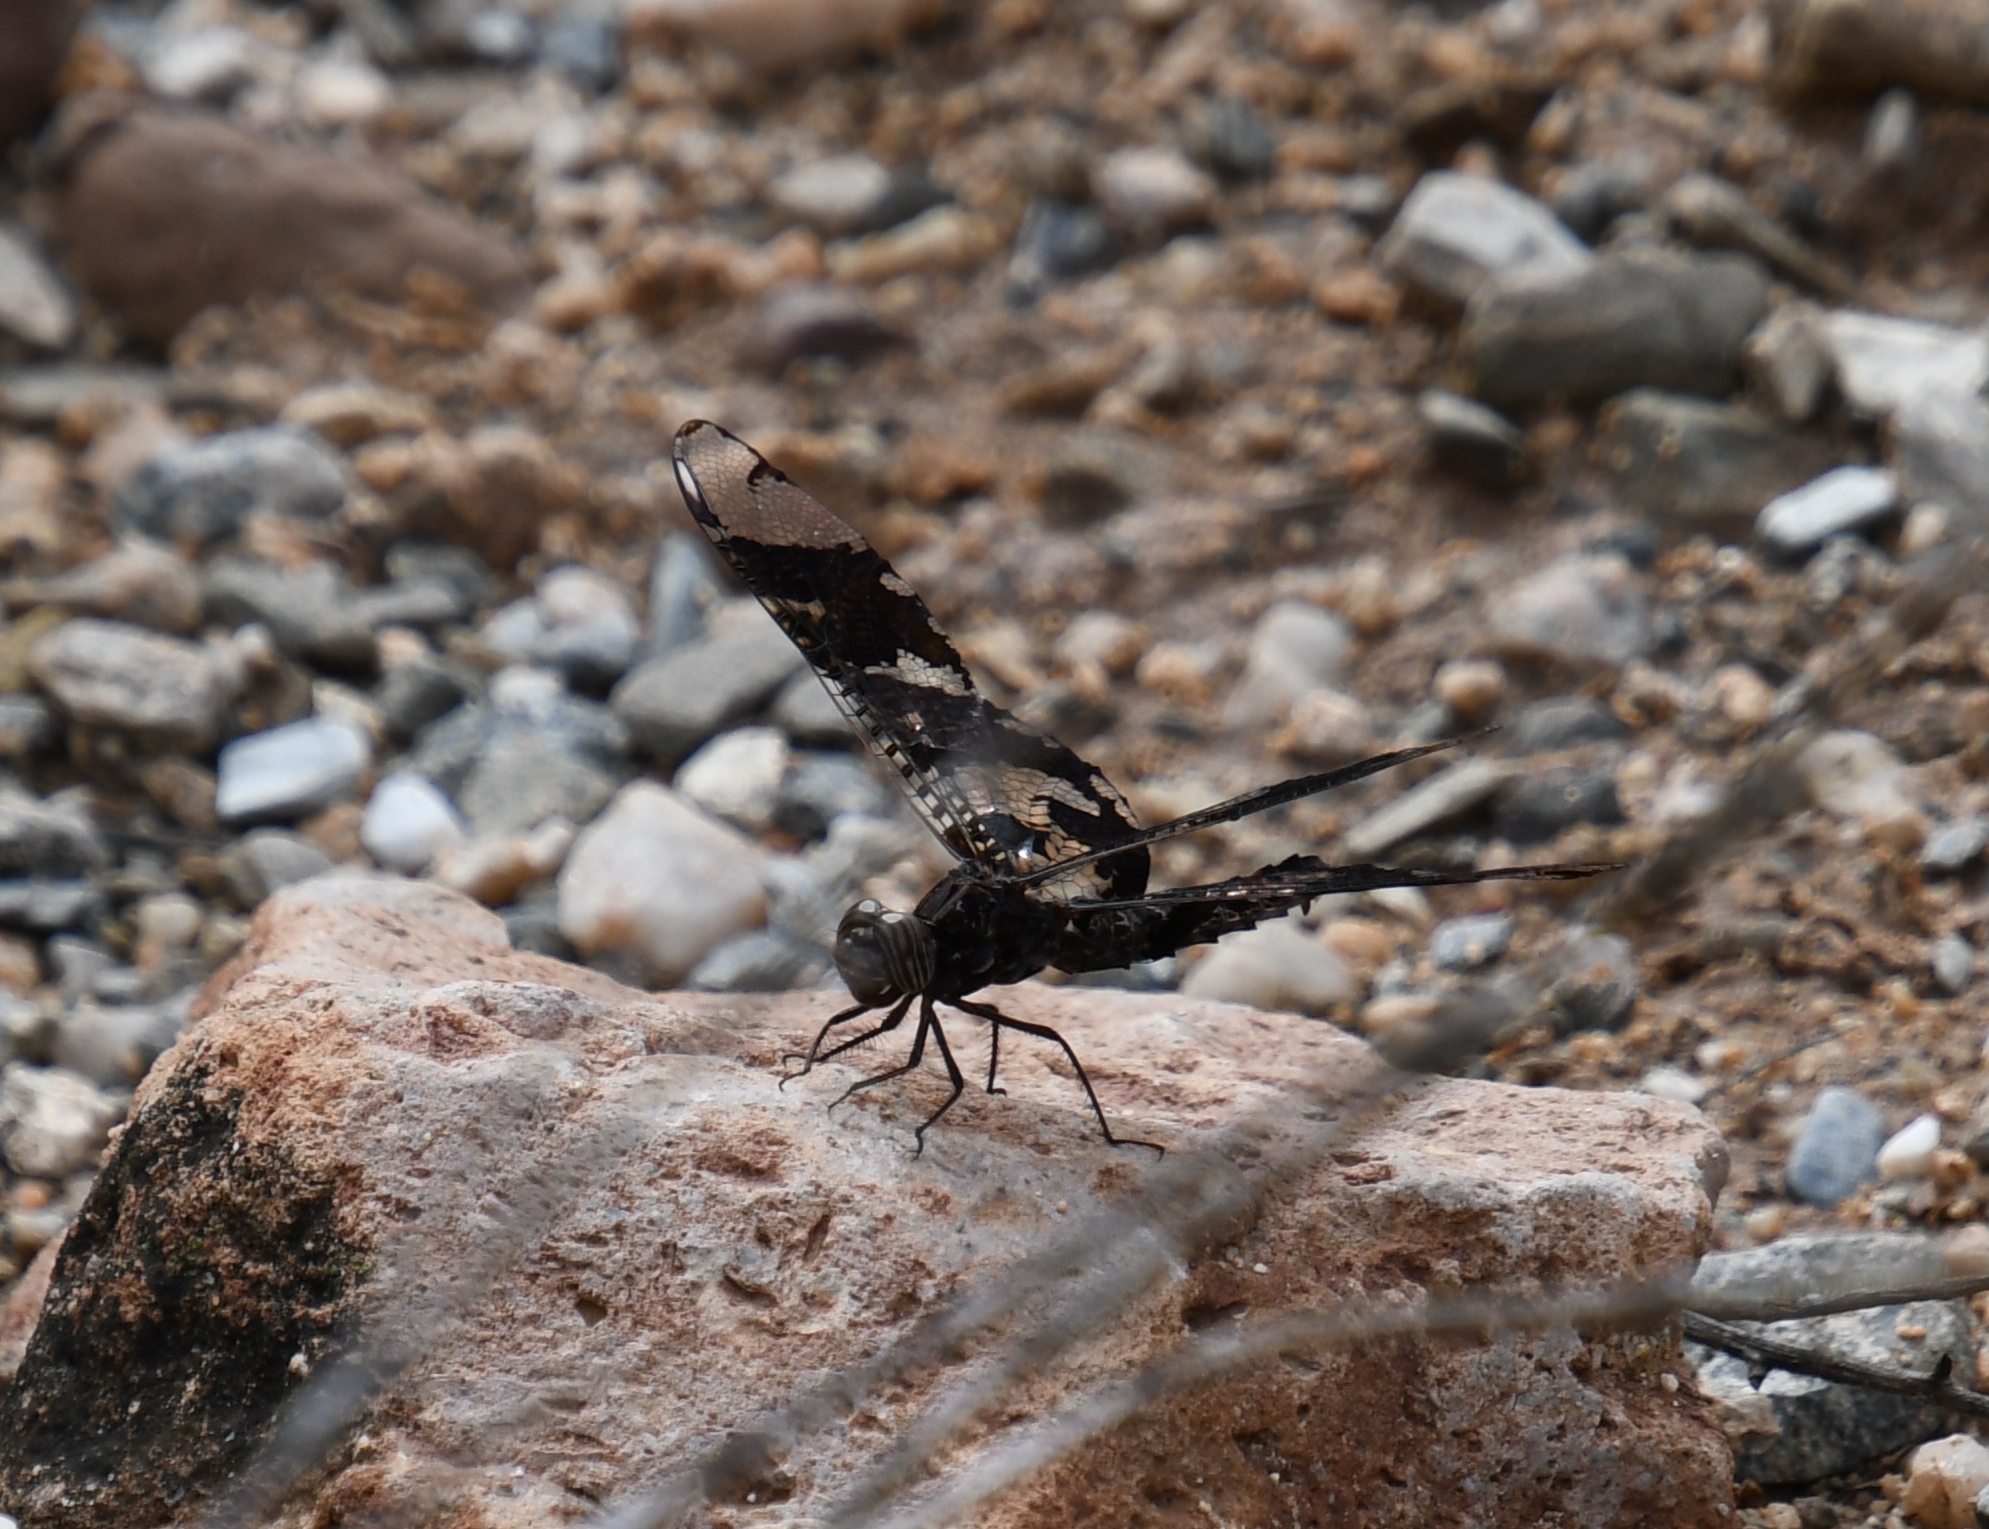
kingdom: Animalia
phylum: Arthropoda
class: Insecta
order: Odonata
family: Libellulidae
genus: Pseudoleon
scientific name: Pseudoleon superbus
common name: Filigree skimmer
